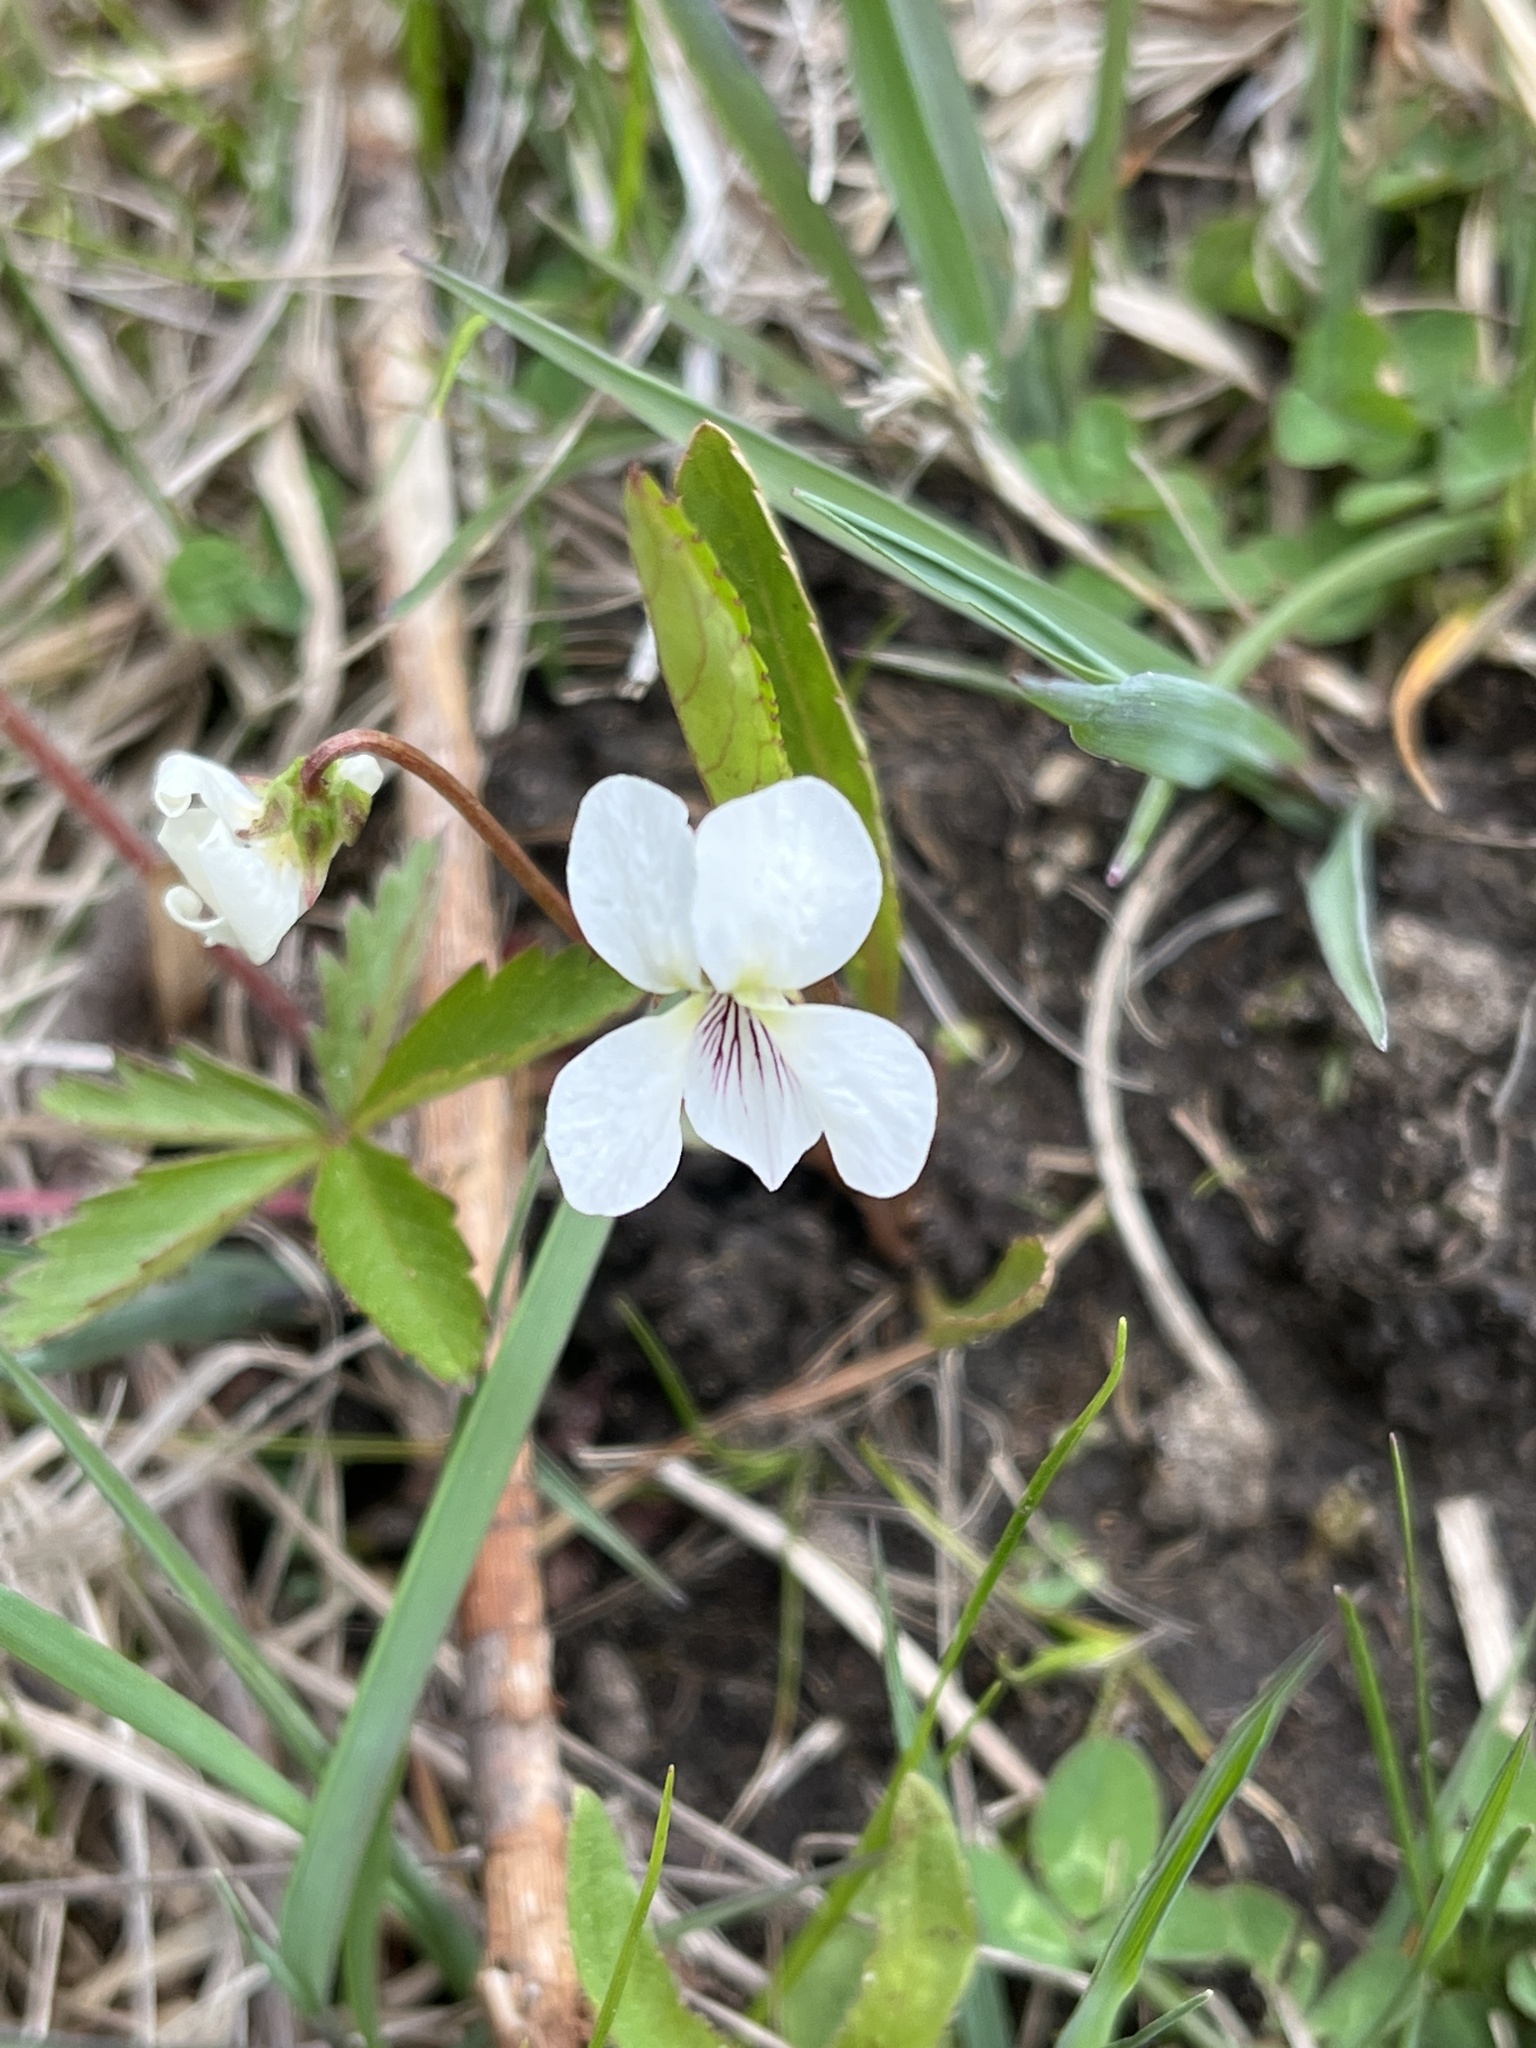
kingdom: Plantae
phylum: Tracheophyta
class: Magnoliopsida
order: Malpighiales
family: Violaceae
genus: Viola
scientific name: Viola lanceolata
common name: Bog white violet
